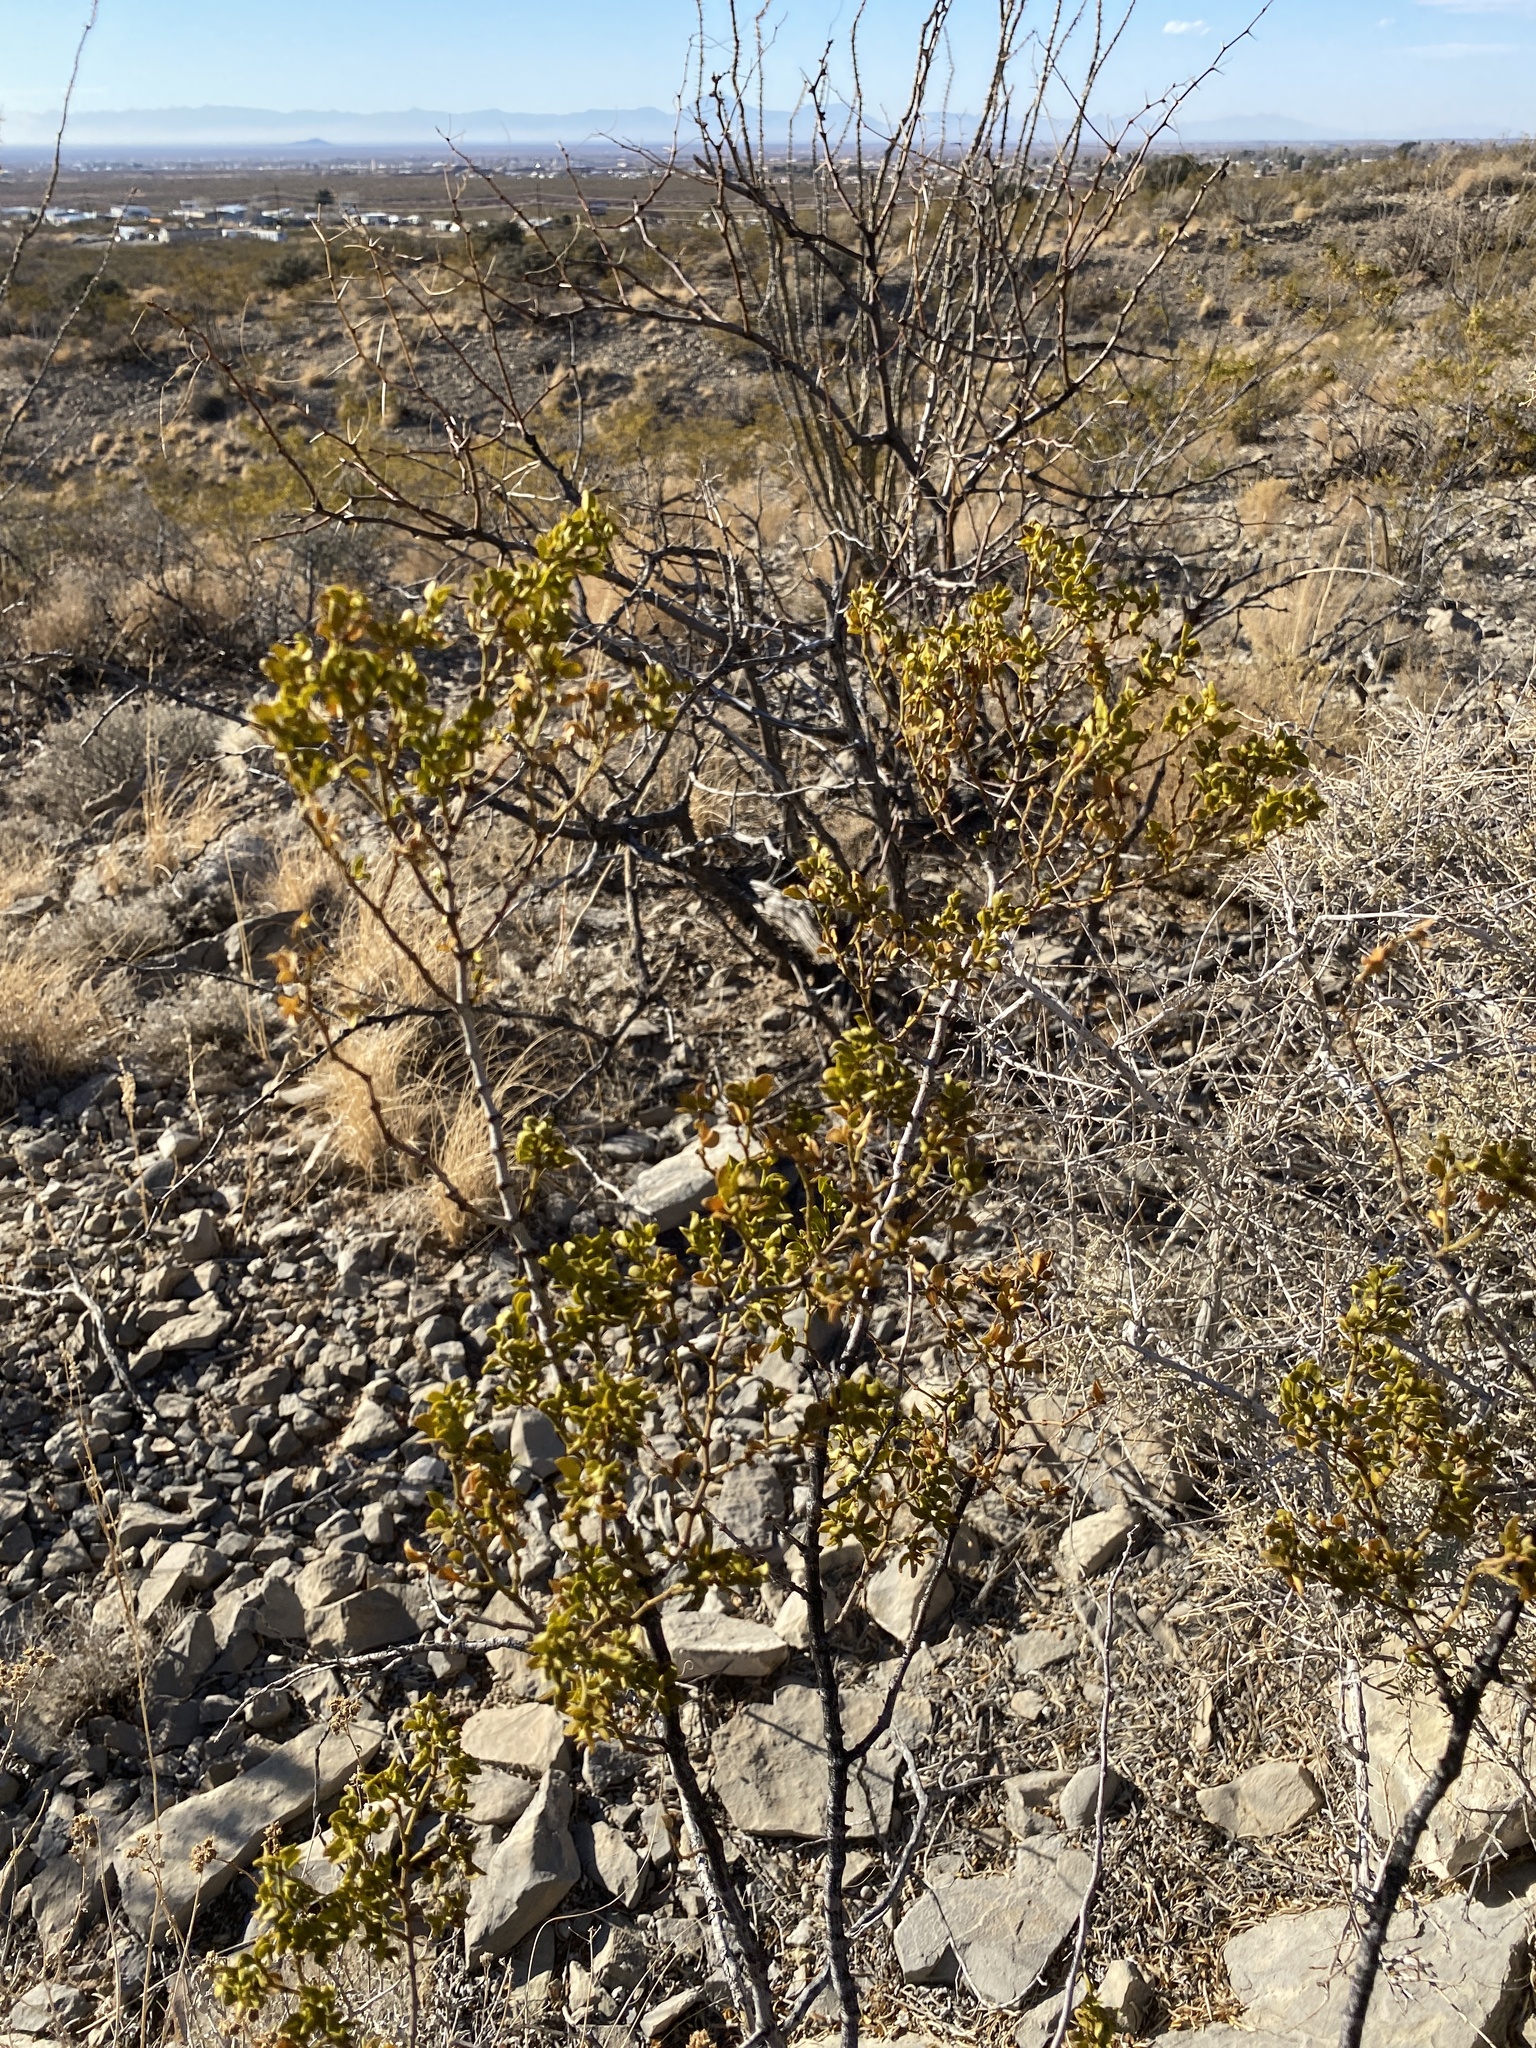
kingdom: Plantae
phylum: Tracheophyta
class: Magnoliopsida
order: Zygophyllales
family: Zygophyllaceae
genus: Larrea
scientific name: Larrea tridentata
